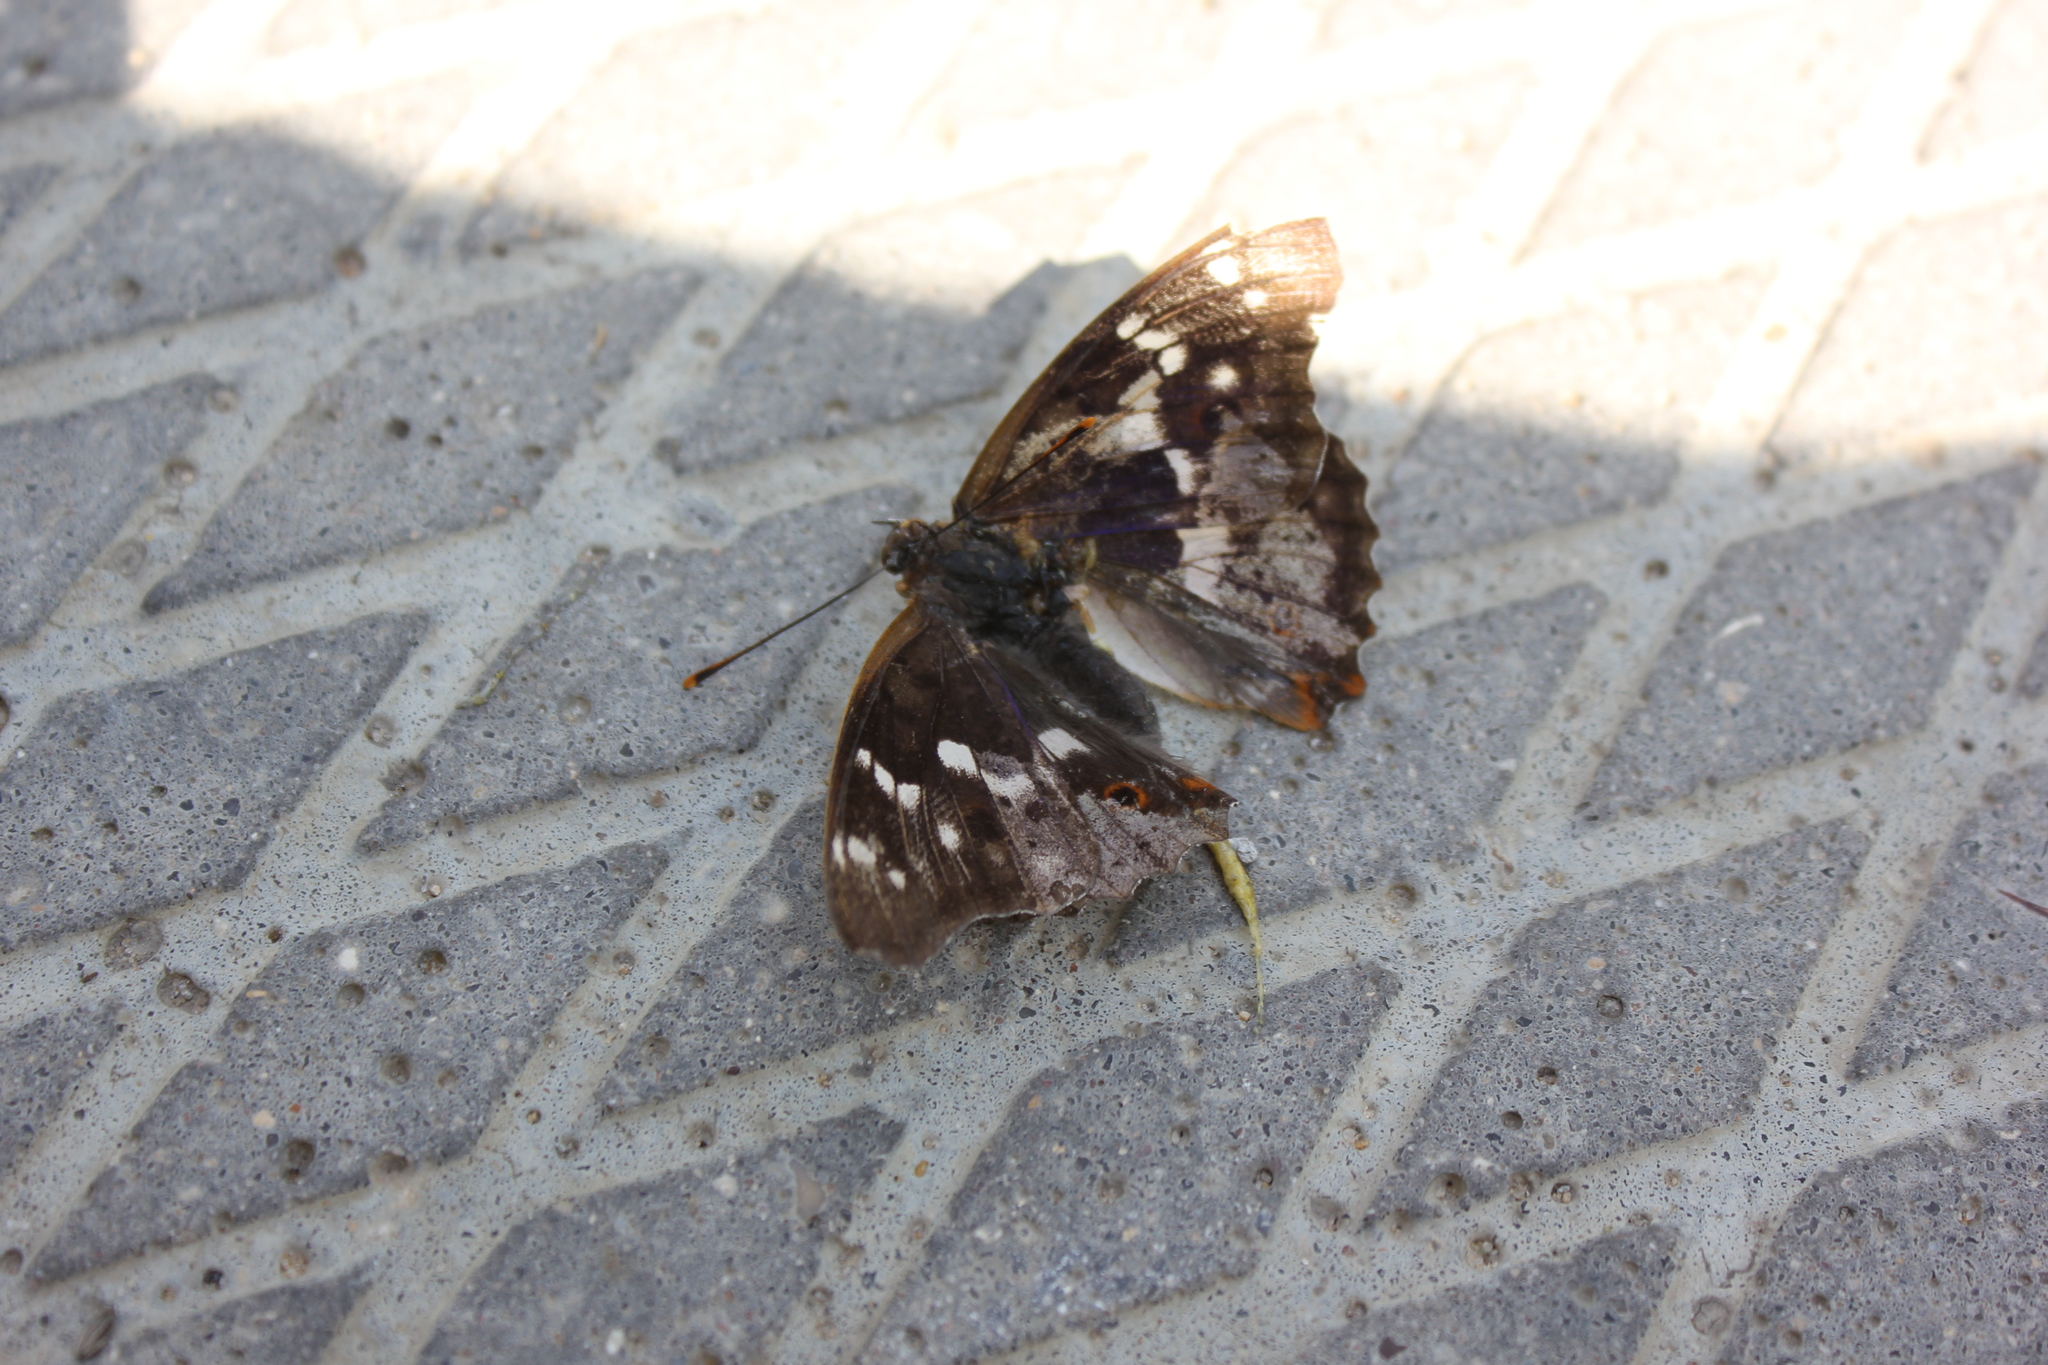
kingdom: Animalia
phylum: Arthropoda
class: Insecta
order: Lepidoptera
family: Nymphalidae
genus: Apatura
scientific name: Apatura ilia
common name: Lesser purple emperor
